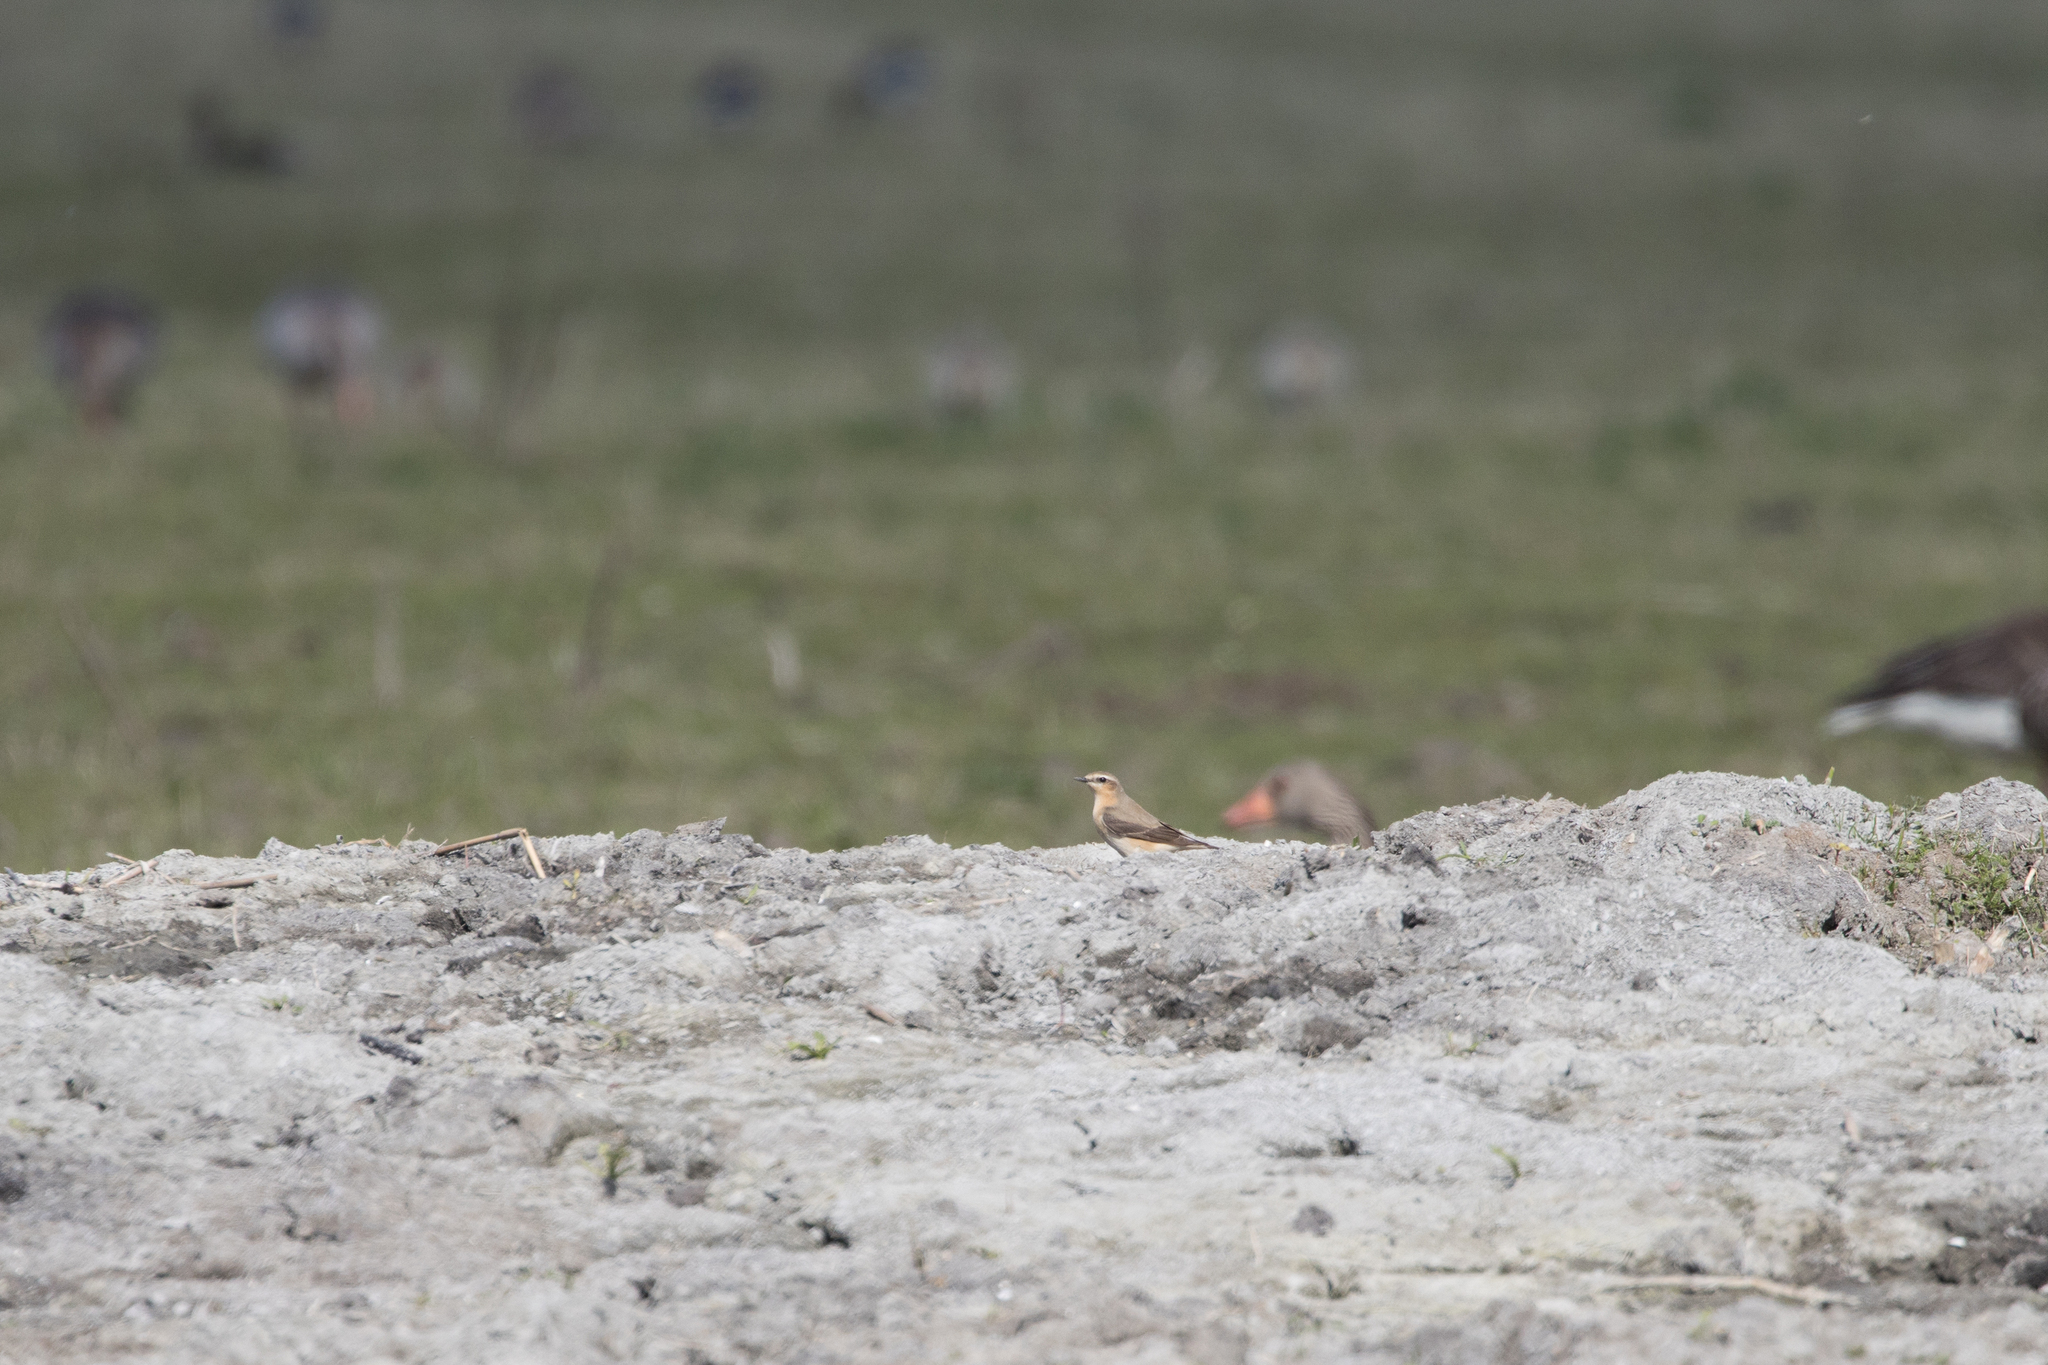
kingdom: Animalia
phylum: Chordata
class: Aves
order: Passeriformes
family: Muscicapidae
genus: Oenanthe
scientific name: Oenanthe oenanthe
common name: Northern wheatear
